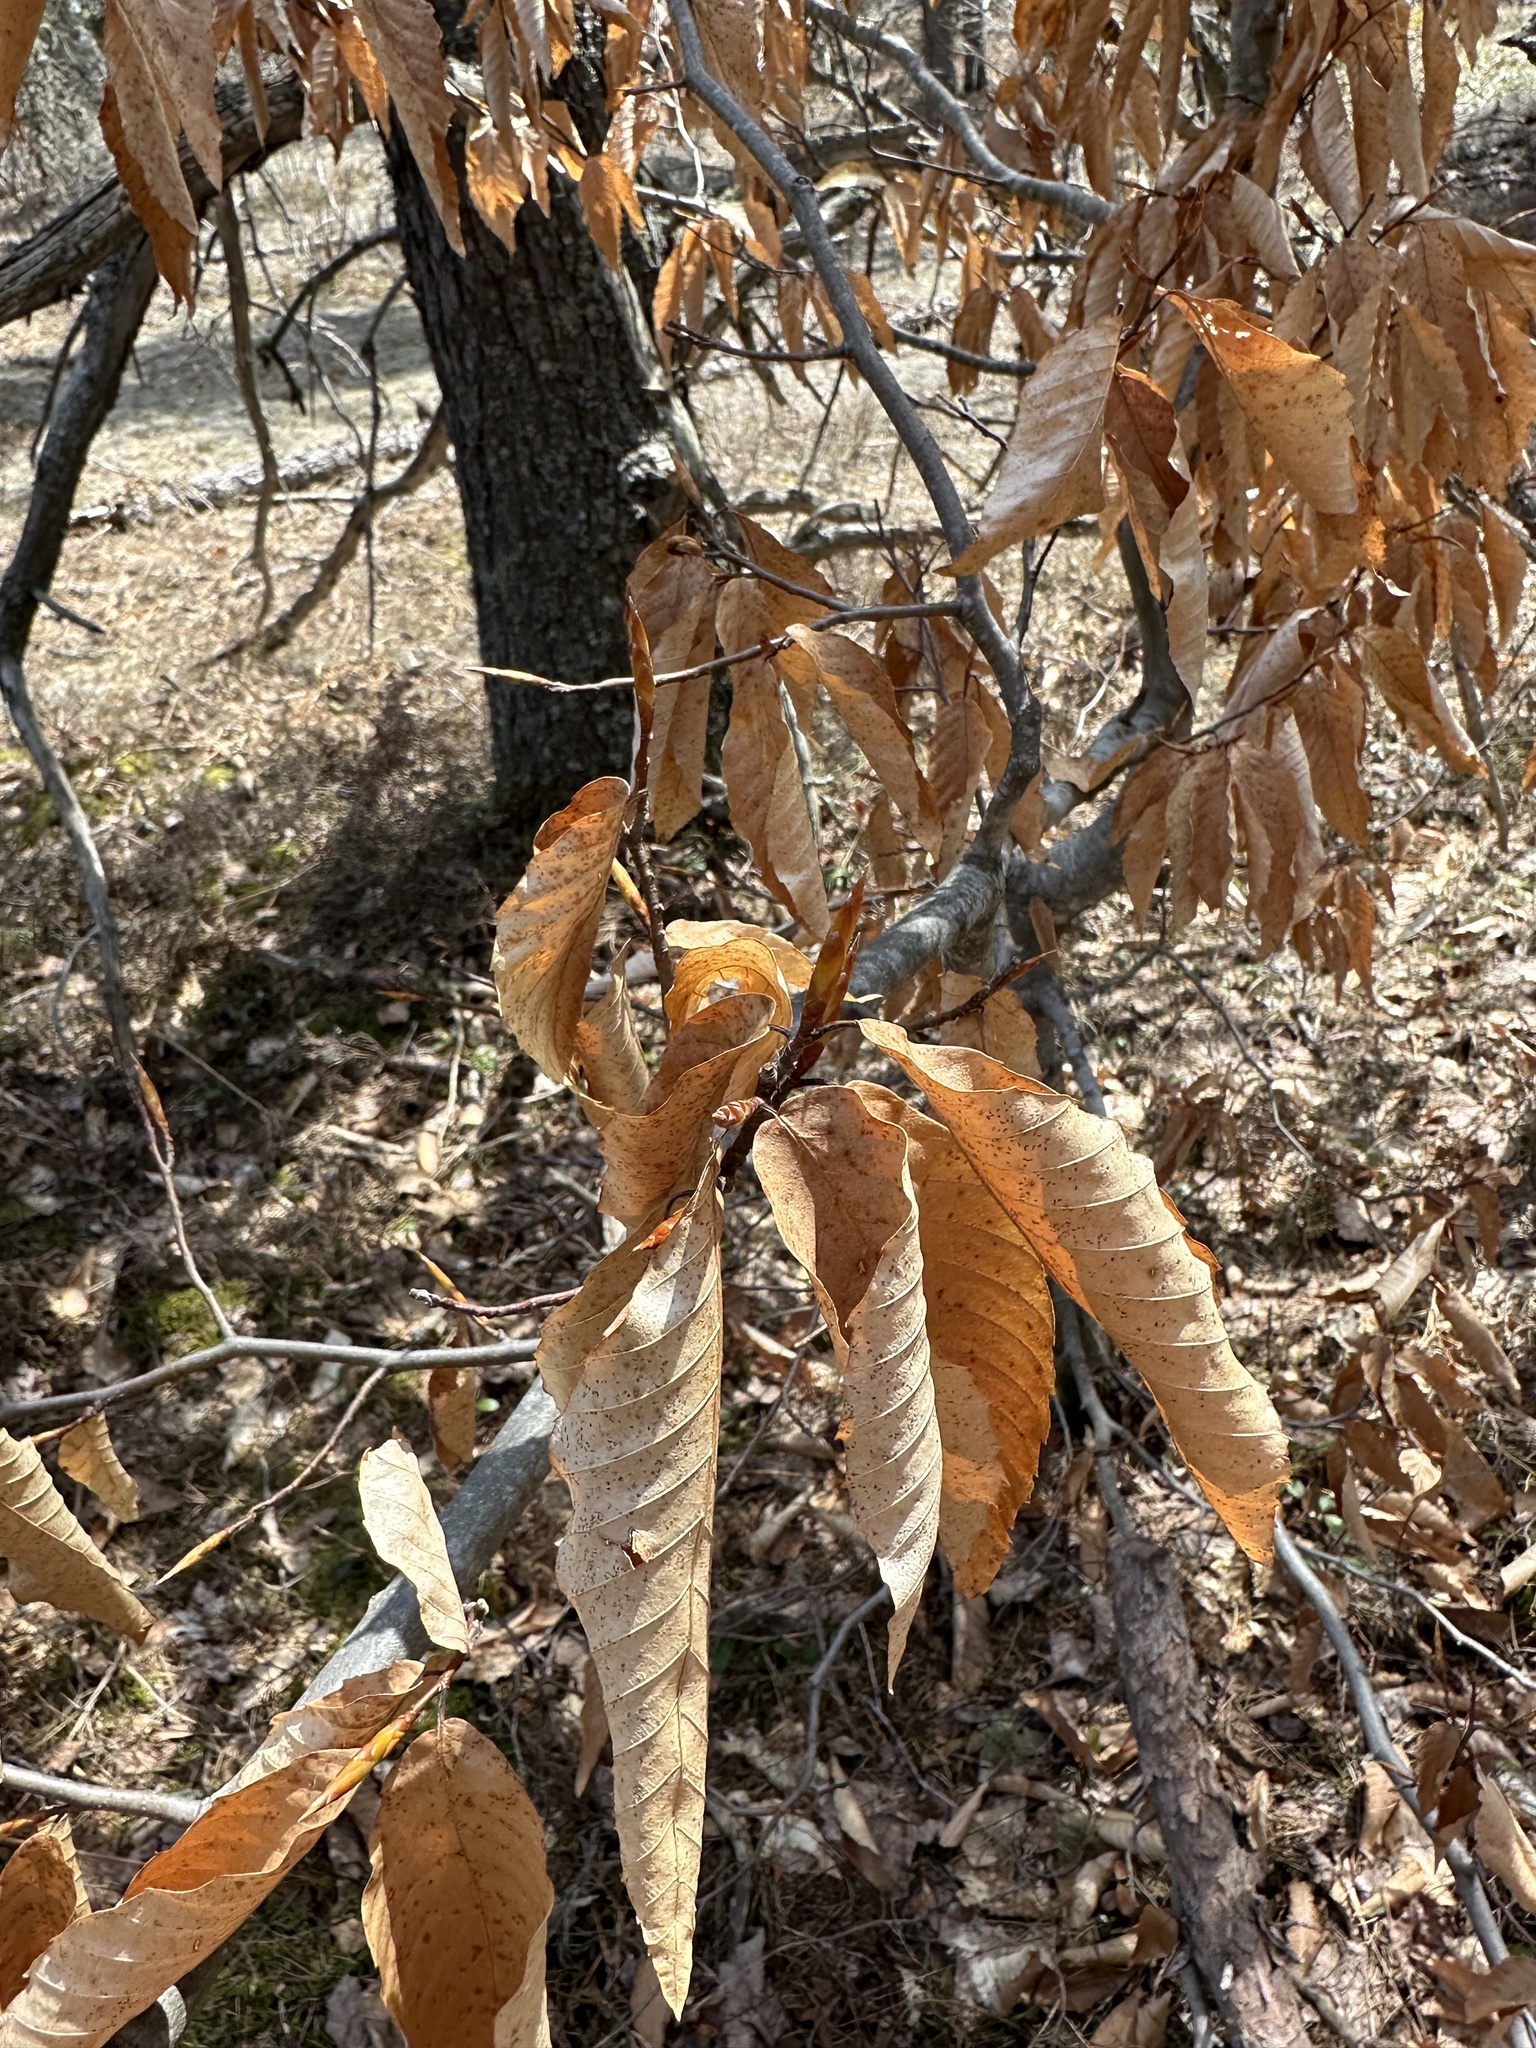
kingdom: Plantae
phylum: Tracheophyta
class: Magnoliopsida
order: Fagales
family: Fagaceae
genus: Fagus
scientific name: Fagus grandifolia
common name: American beech
